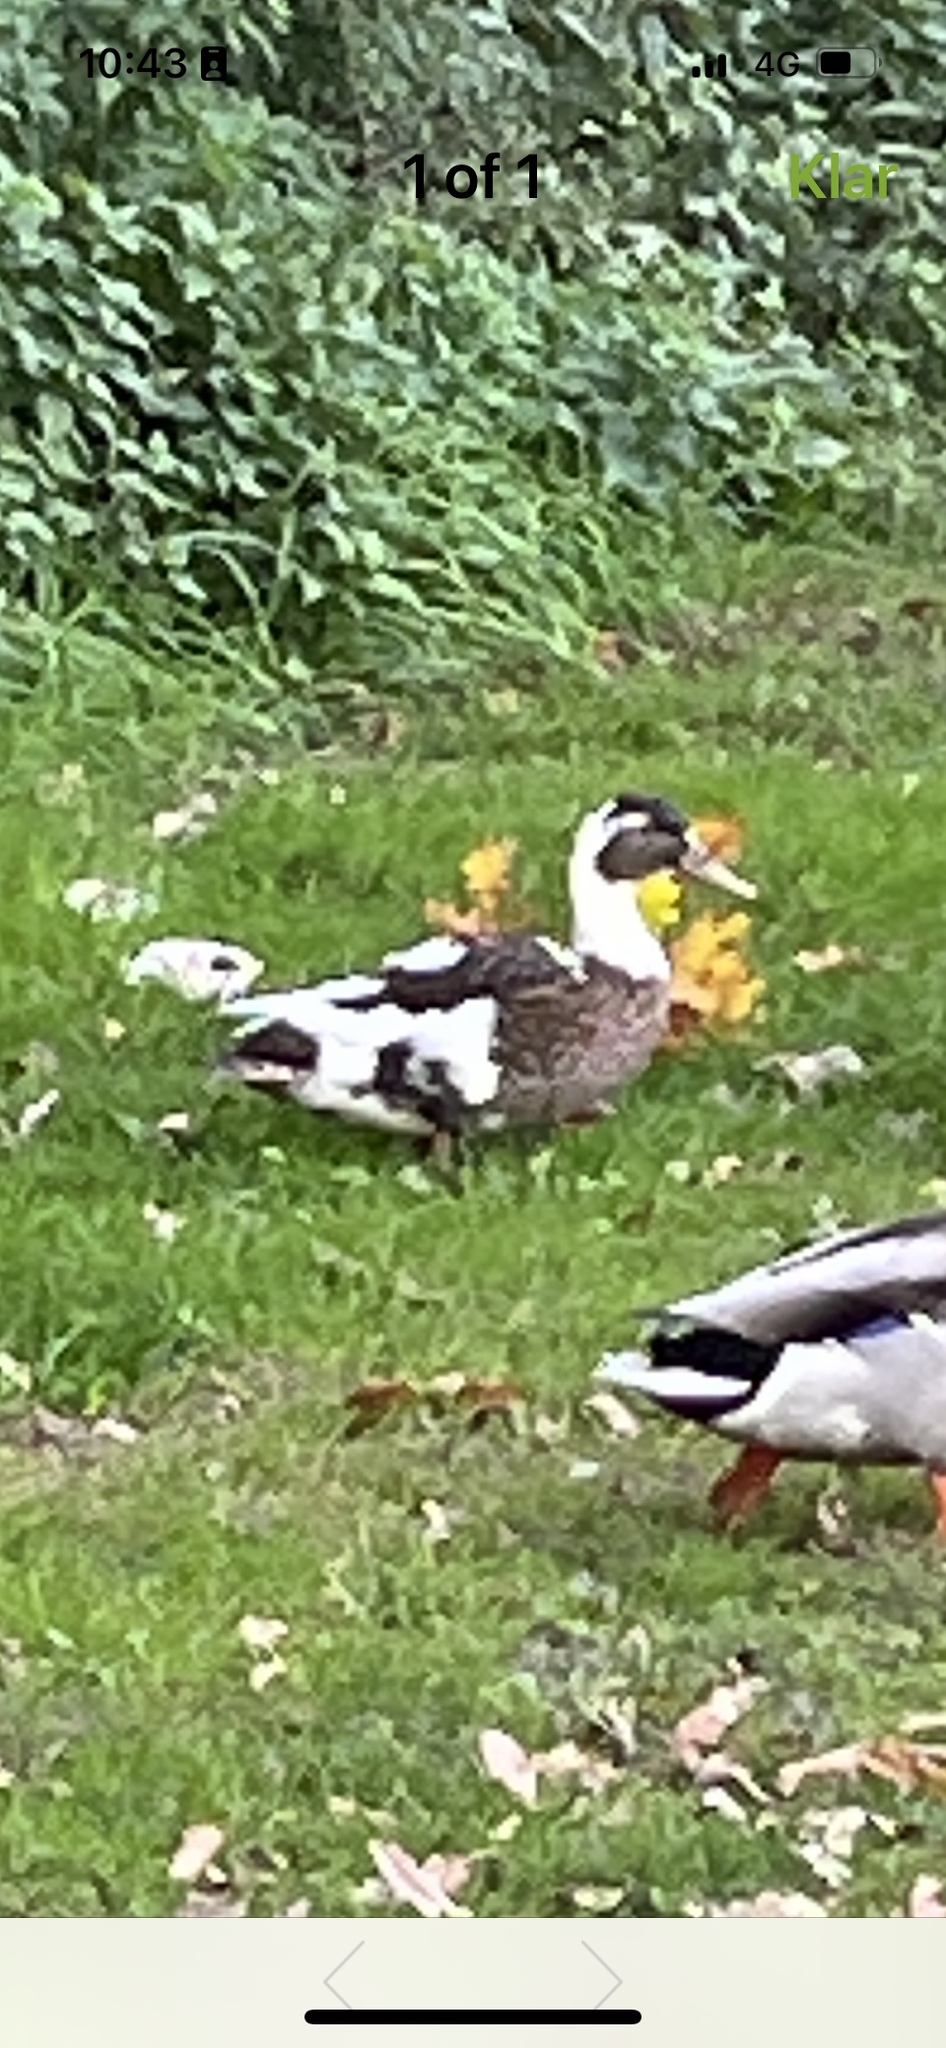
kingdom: Animalia
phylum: Chordata
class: Aves
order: Anseriformes
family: Anatidae
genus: Anas
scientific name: Anas platyrhynchos
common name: Mallard
